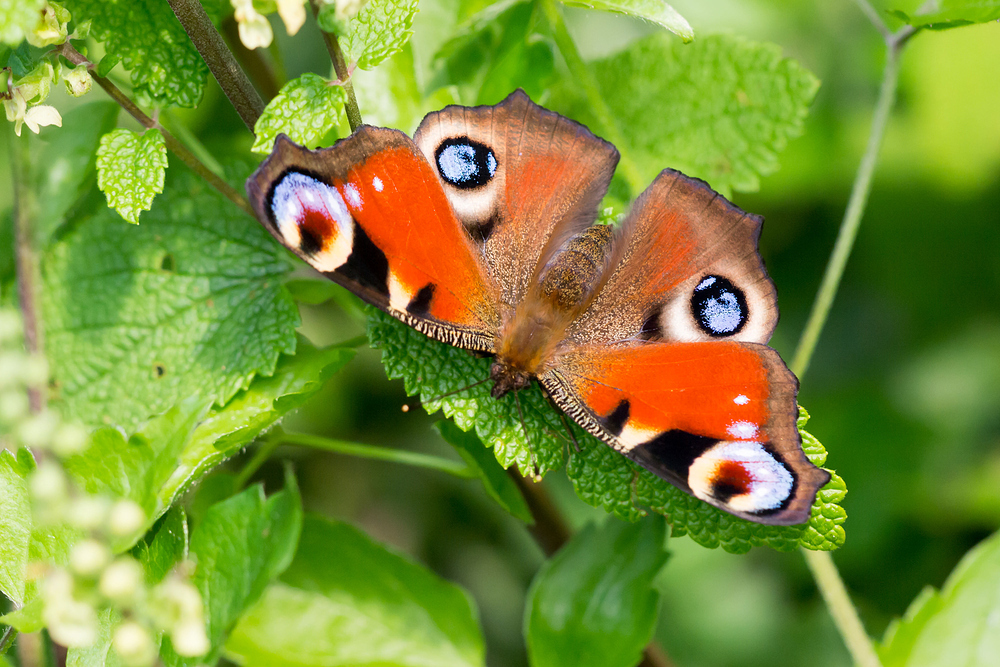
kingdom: Animalia
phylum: Arthropoda
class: Insecta
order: Lepidoptera
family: Nymphalidae
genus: Aglais
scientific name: Aglais io
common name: Peacock
